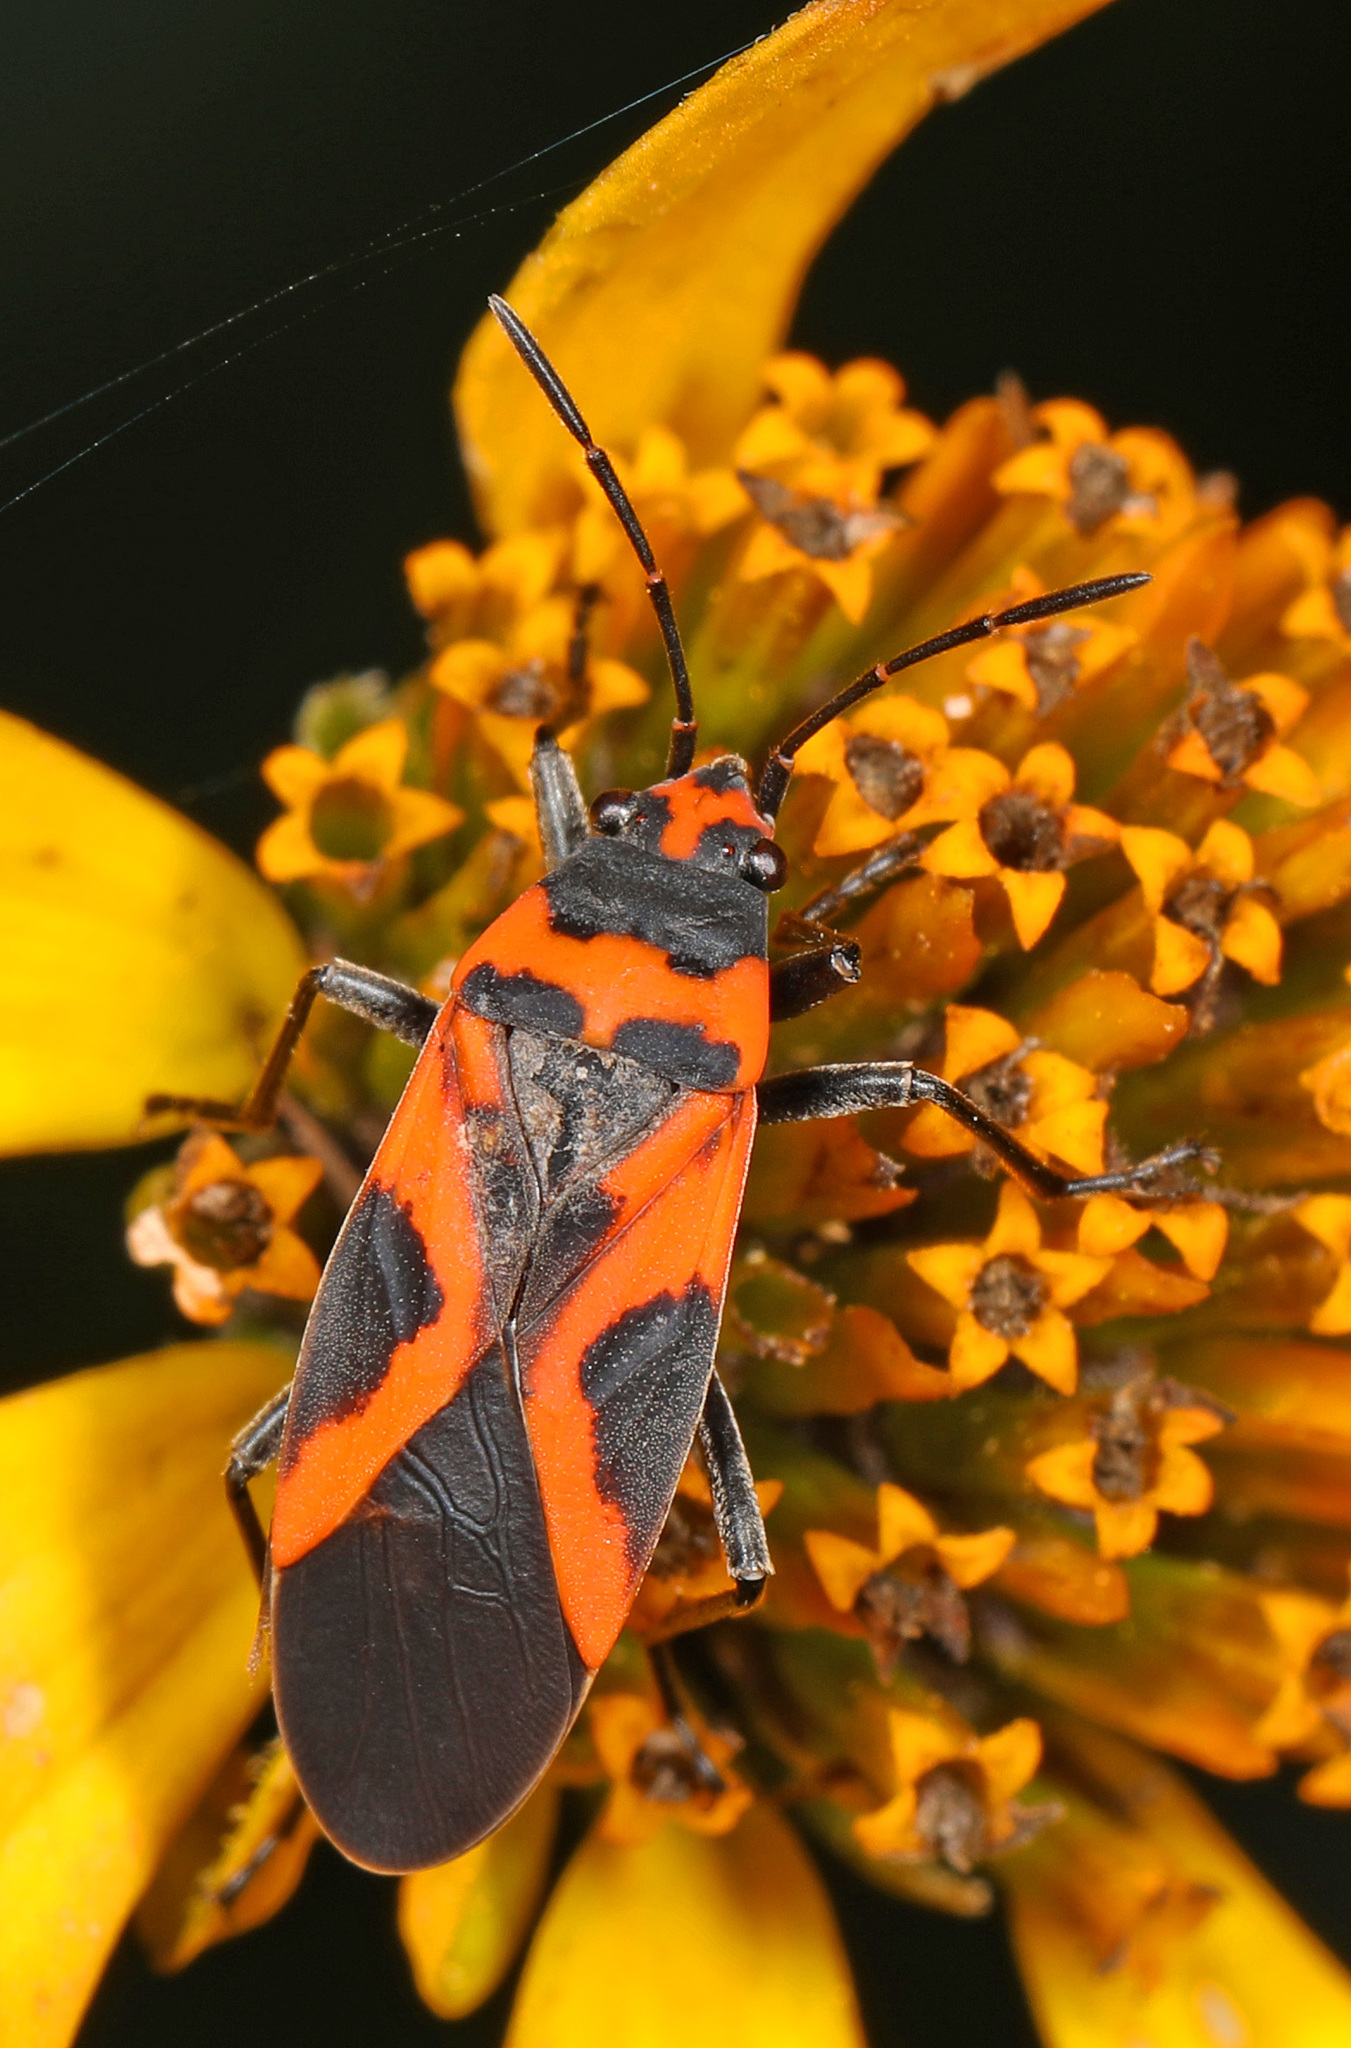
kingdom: Animalia
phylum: Arthropoda
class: Insecta
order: Hemiptera
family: Lygaeidae
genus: Lygaeus
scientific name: Lygaeus turcicus
